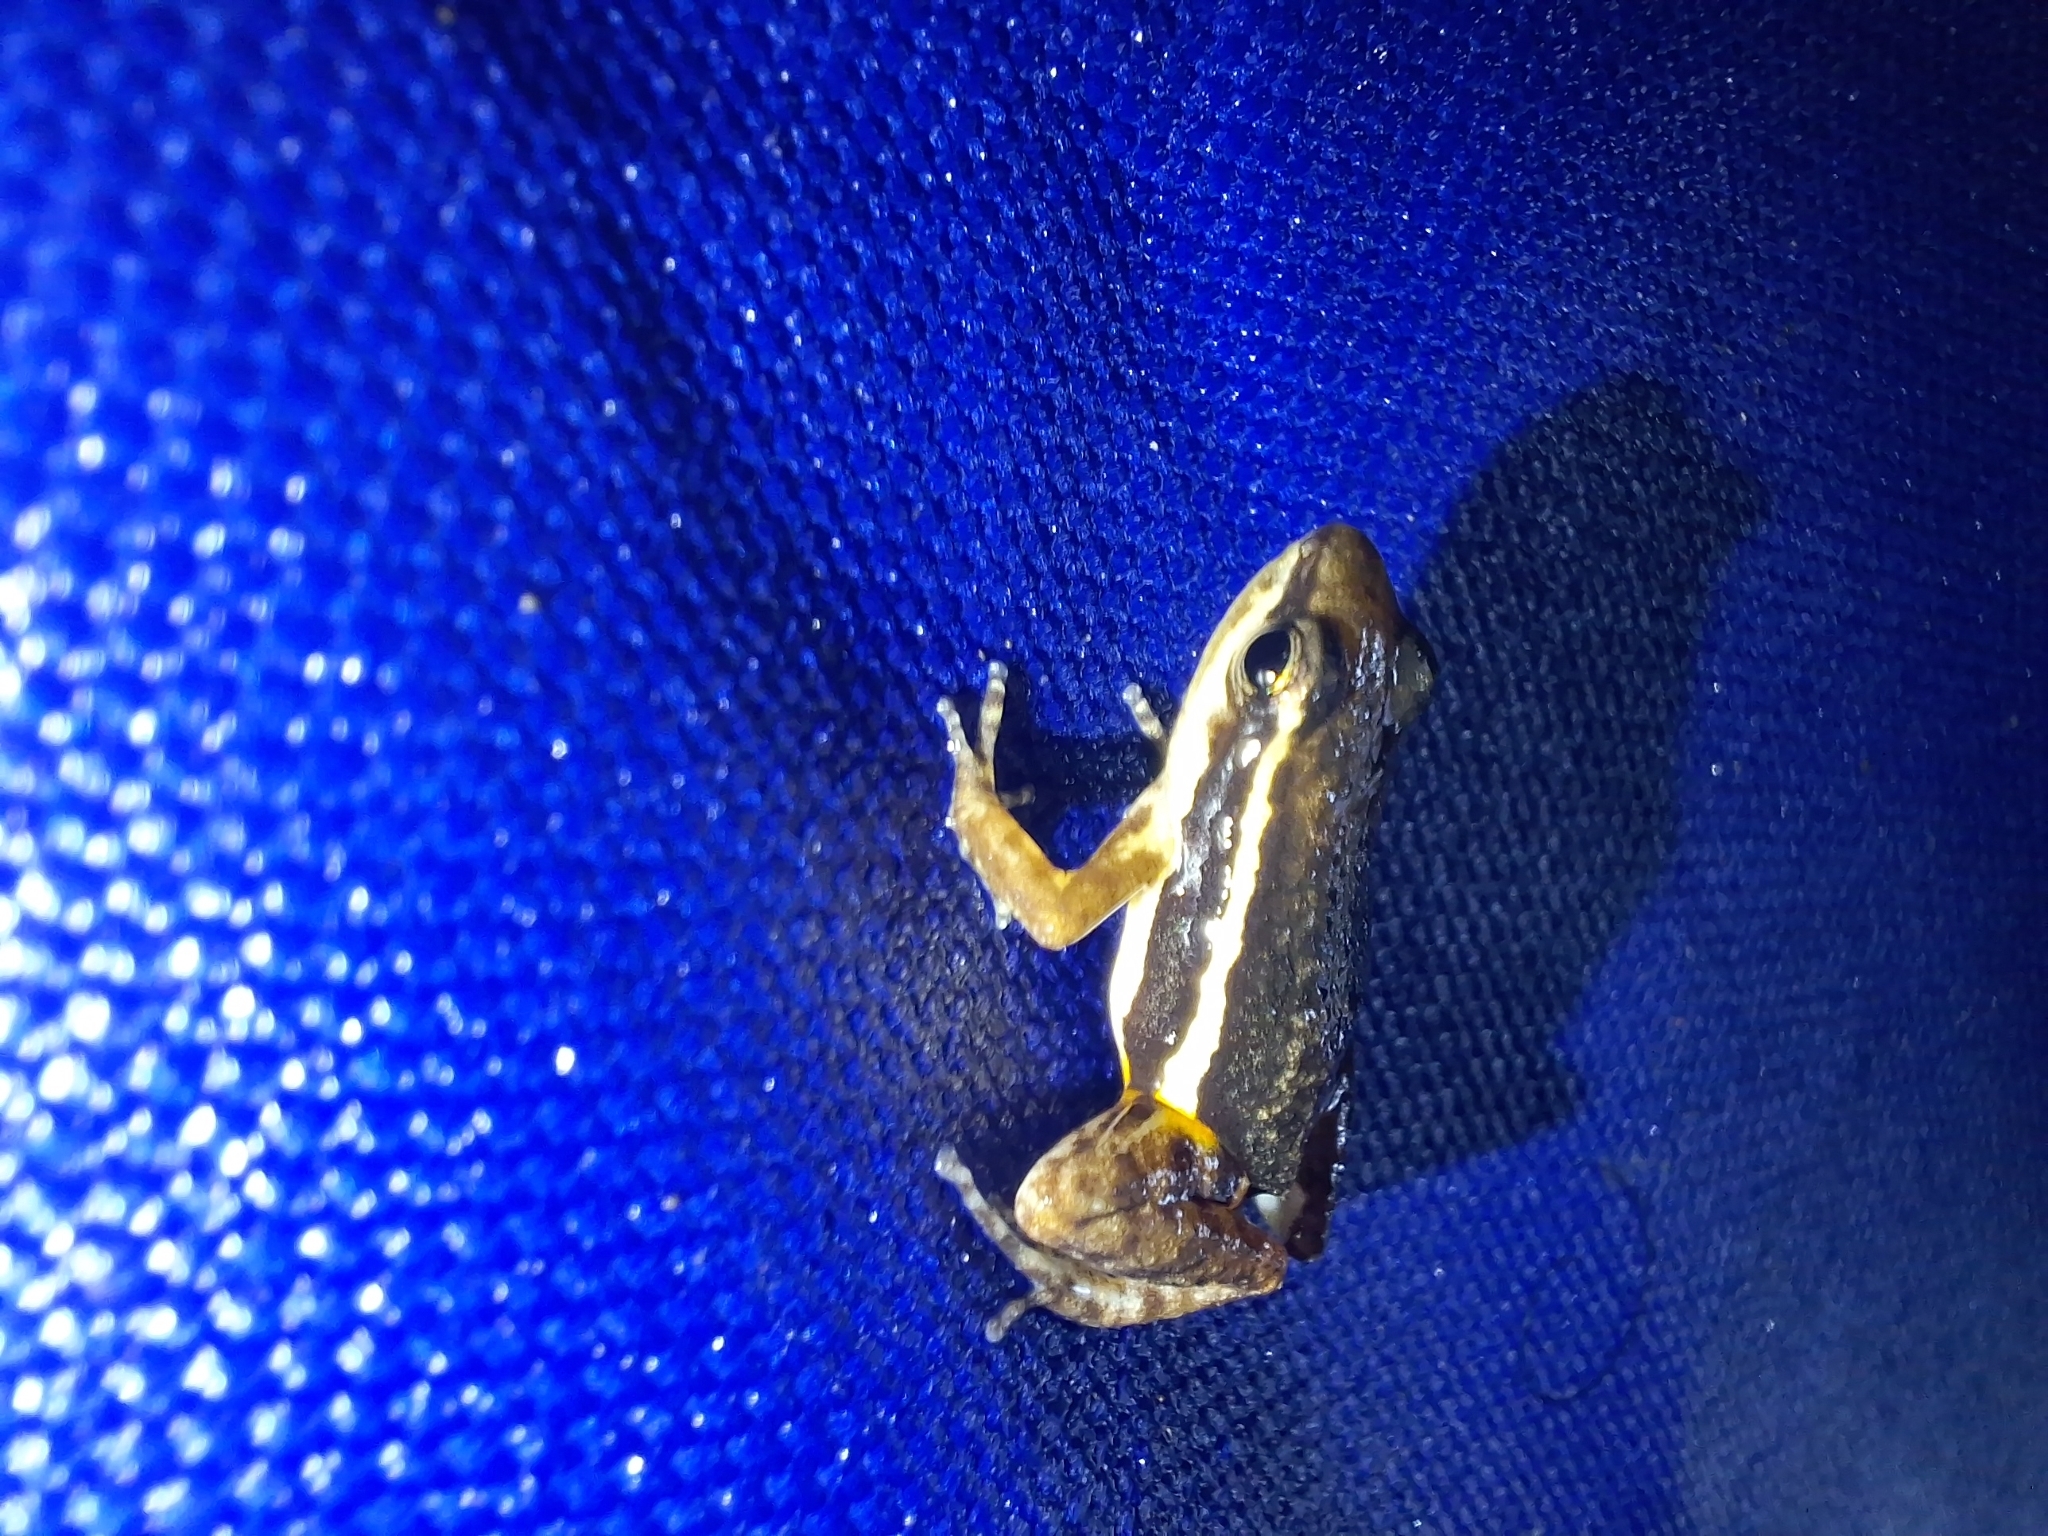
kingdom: Animalia
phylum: Chordata
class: Amphibia
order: Anura
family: Dendrobatidae
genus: Epipedobates
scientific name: Epipedobates machalilla
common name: Machalilla rocket frog
